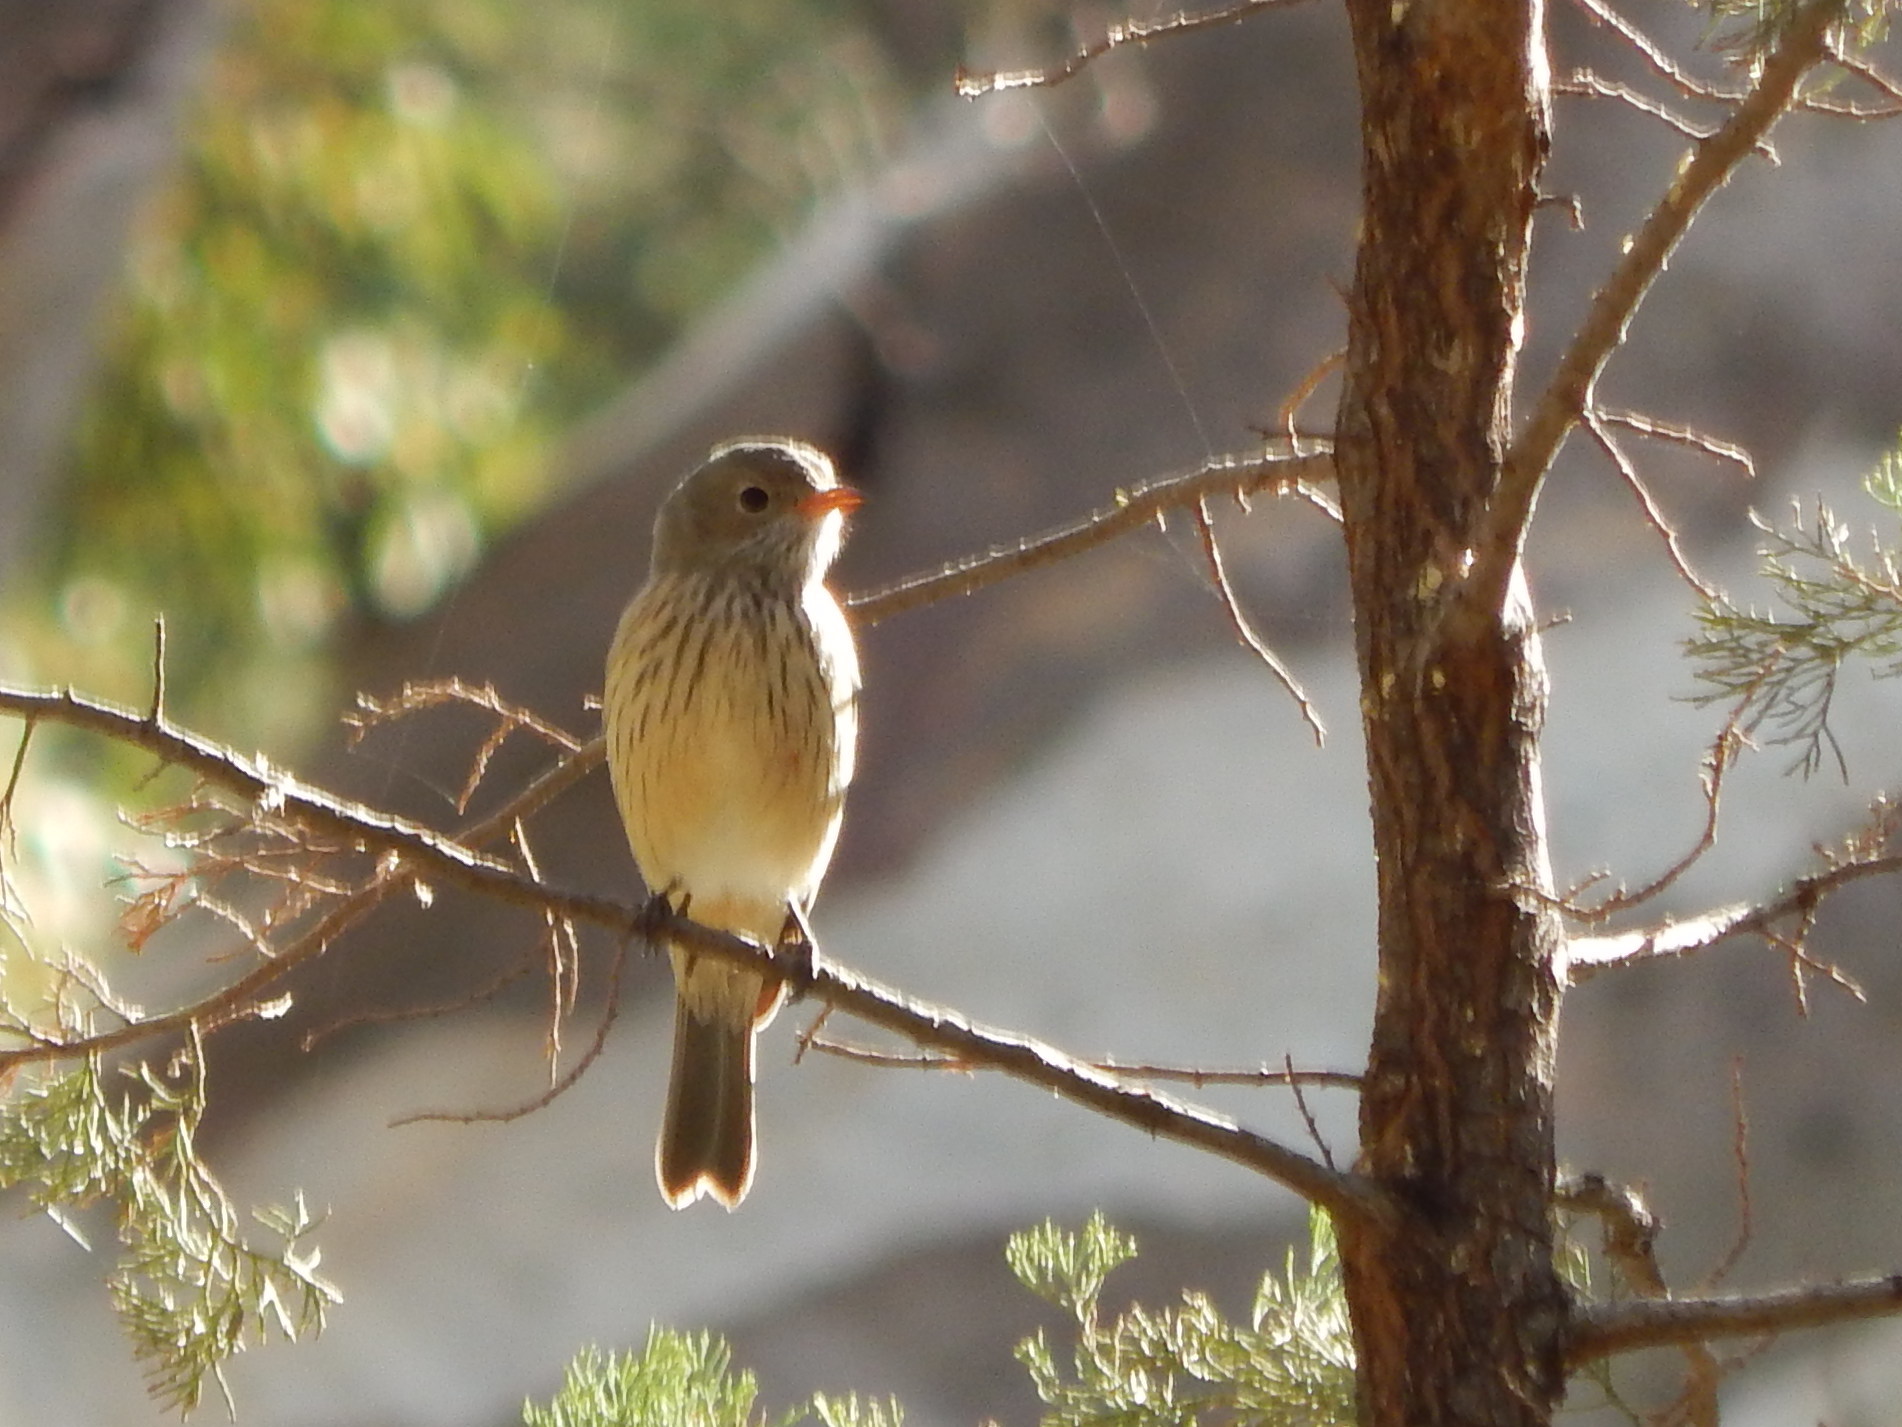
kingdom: Animalia
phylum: Chordata
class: Aves
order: Passeriformes
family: Pachycephalidae
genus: Pachycephala
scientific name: Pachycephala rufiventris
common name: Rufous whistler
